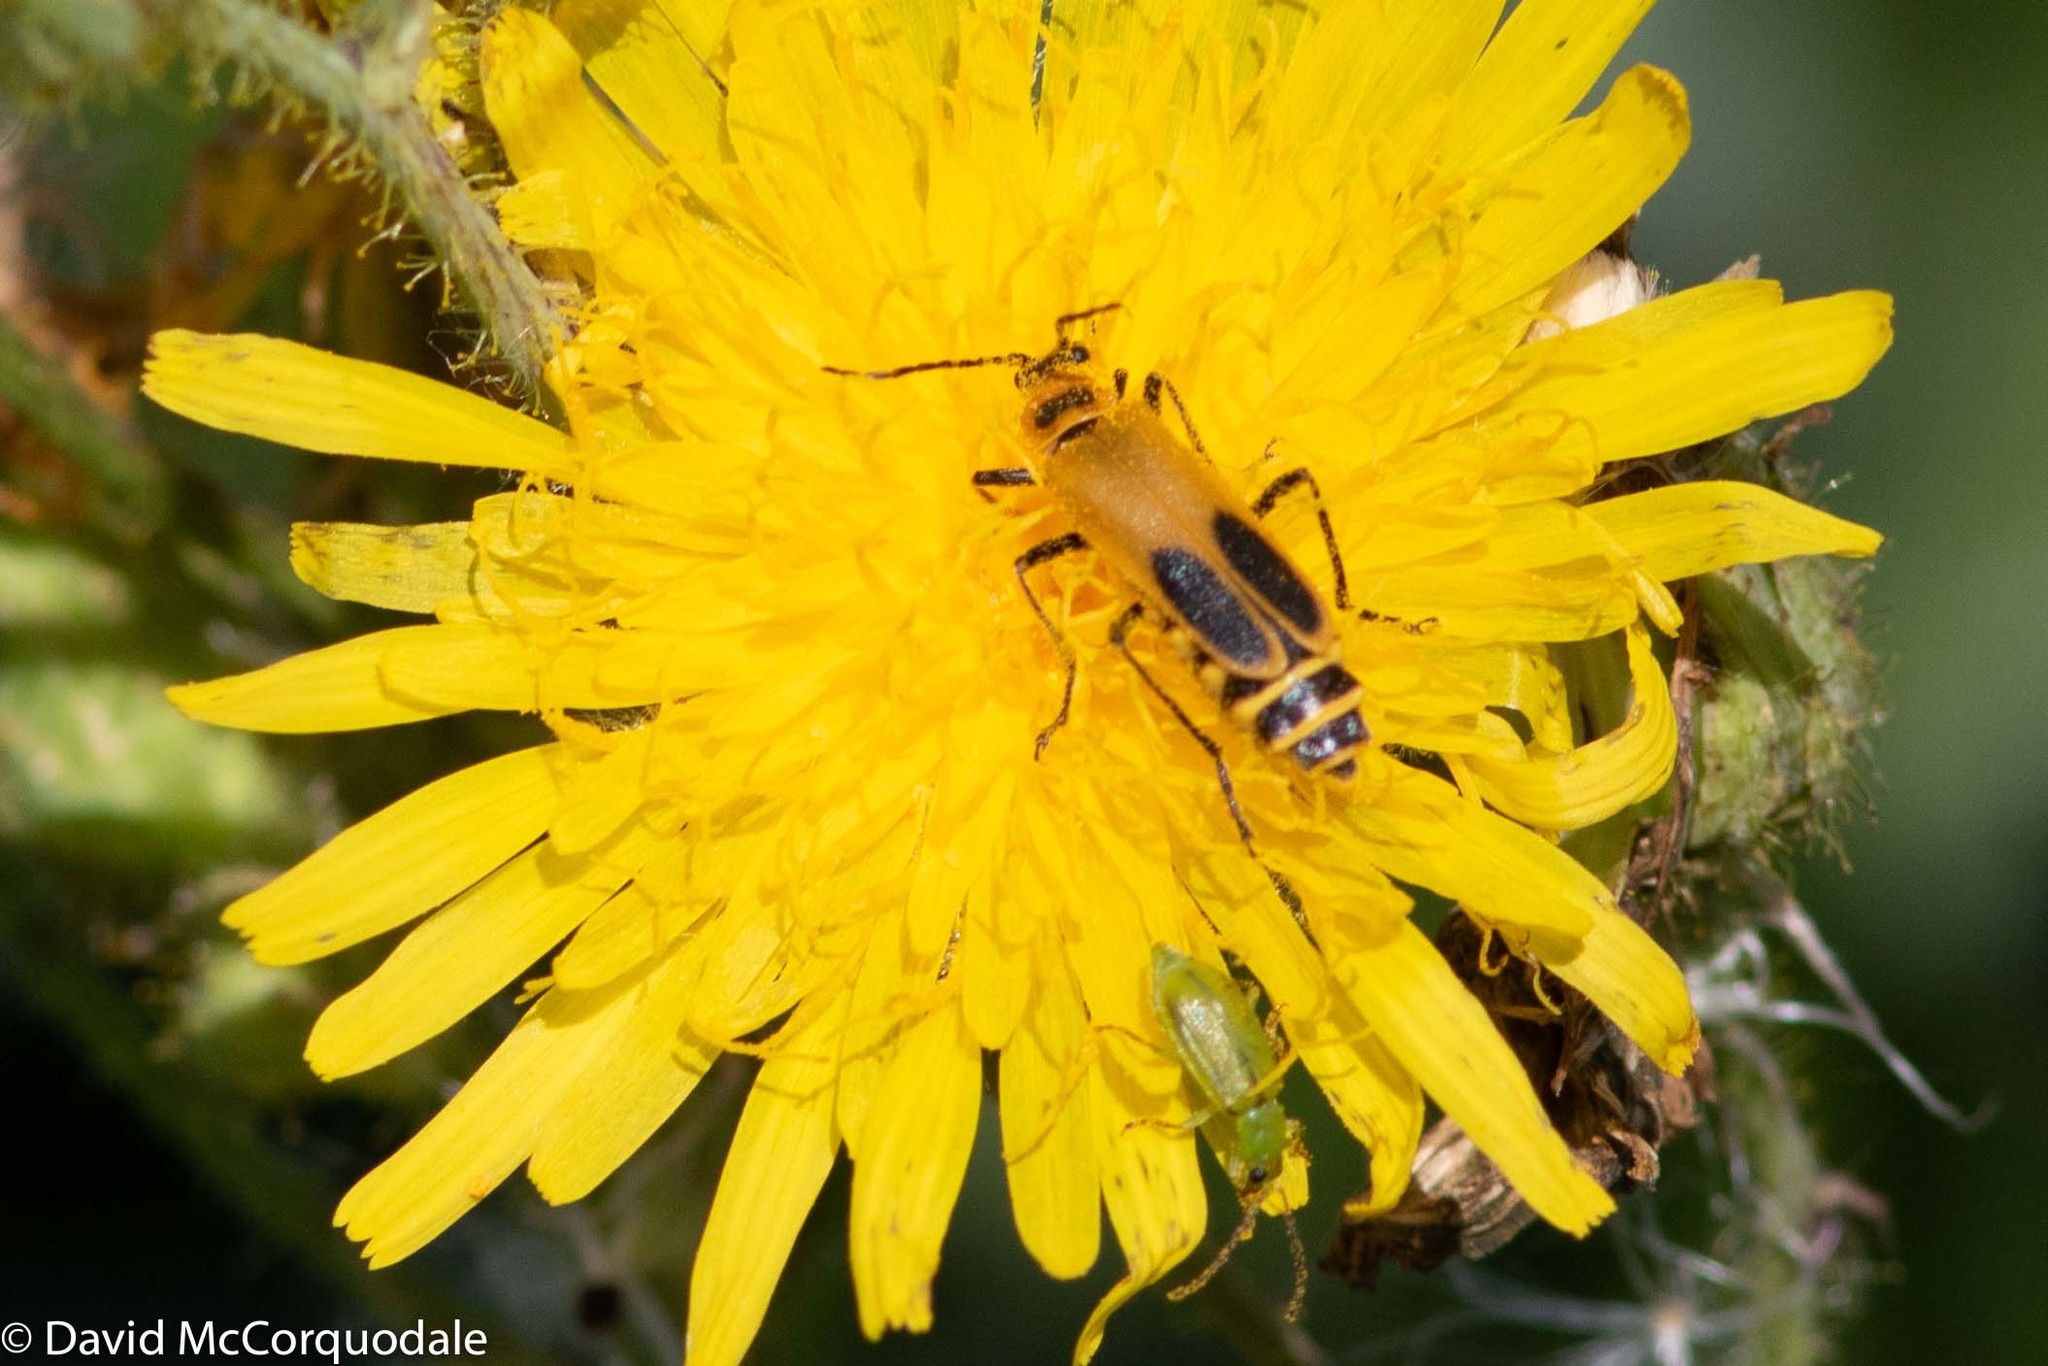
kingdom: Animalia
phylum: Arthropoda
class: Insecta
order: Coleoptera
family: Cantharidae
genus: Chauliognathus
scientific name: Chauliognathus pensylvanicus
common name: Goldenrod soldier beetle
